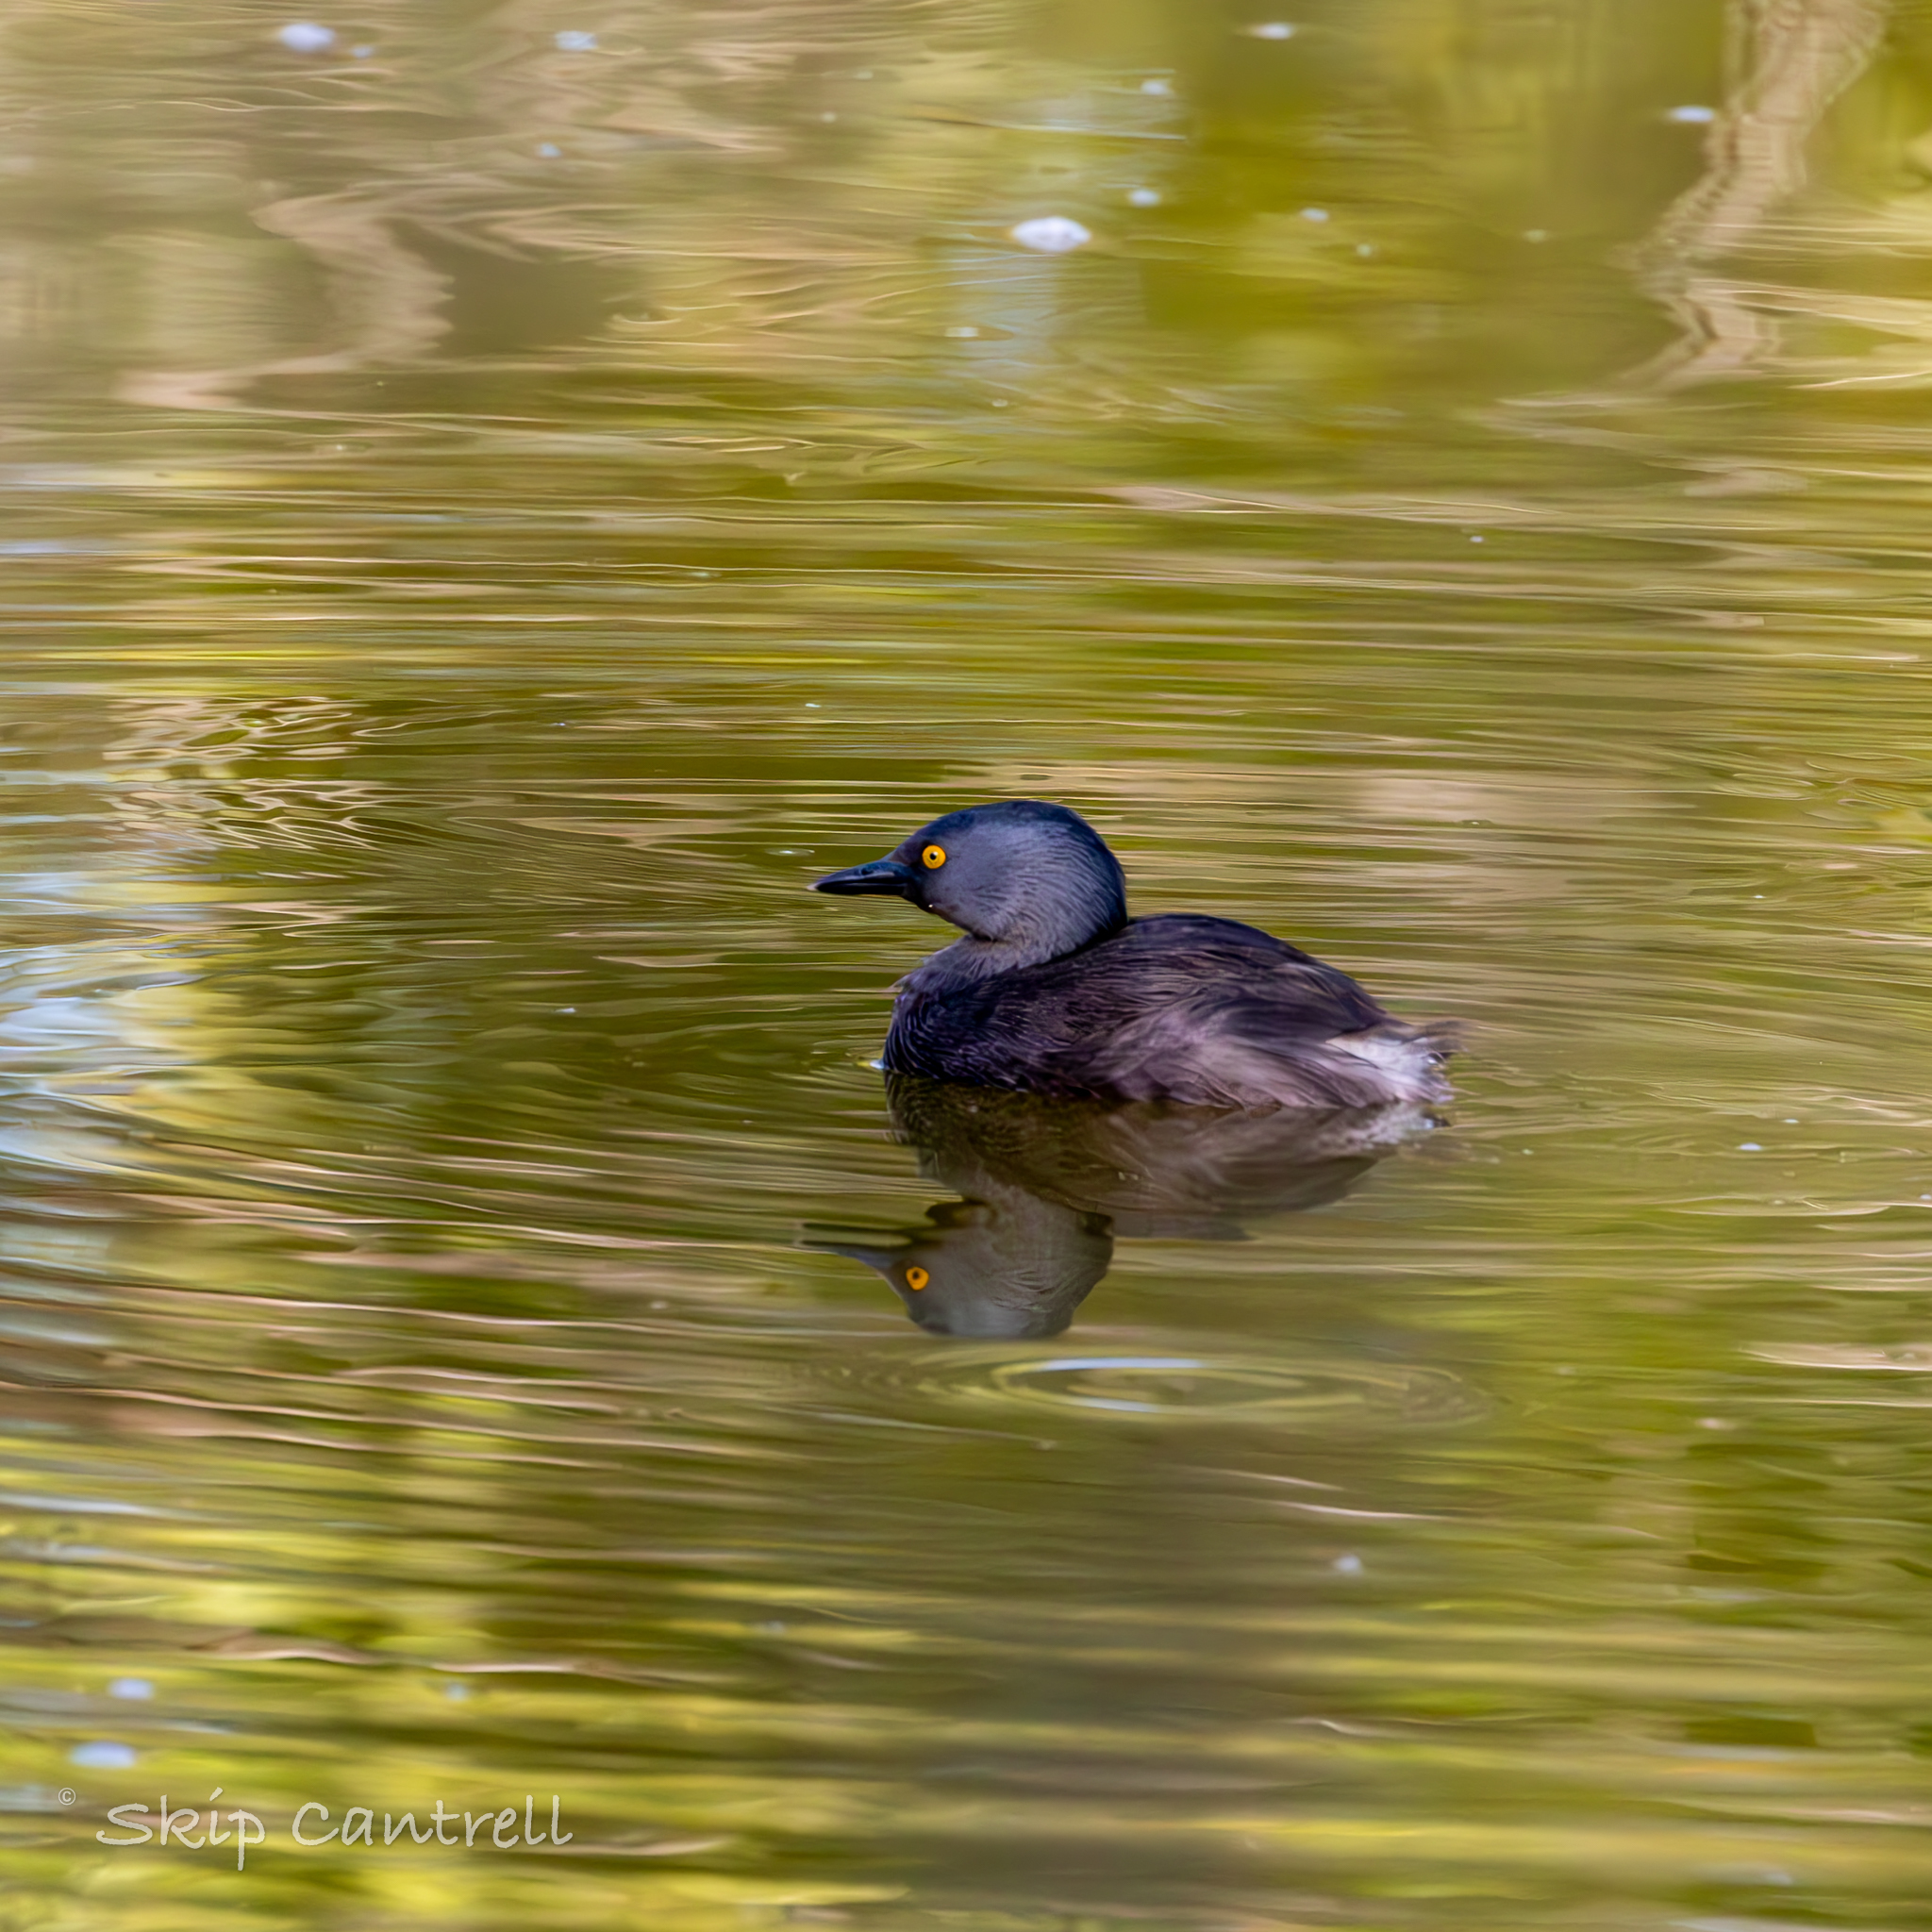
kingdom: Animalia
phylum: Chordata
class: Aves
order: Podicipediformes
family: Podicipedidae
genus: Tachybaptus
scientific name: Tachybaptus dominicus
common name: Least grebe
